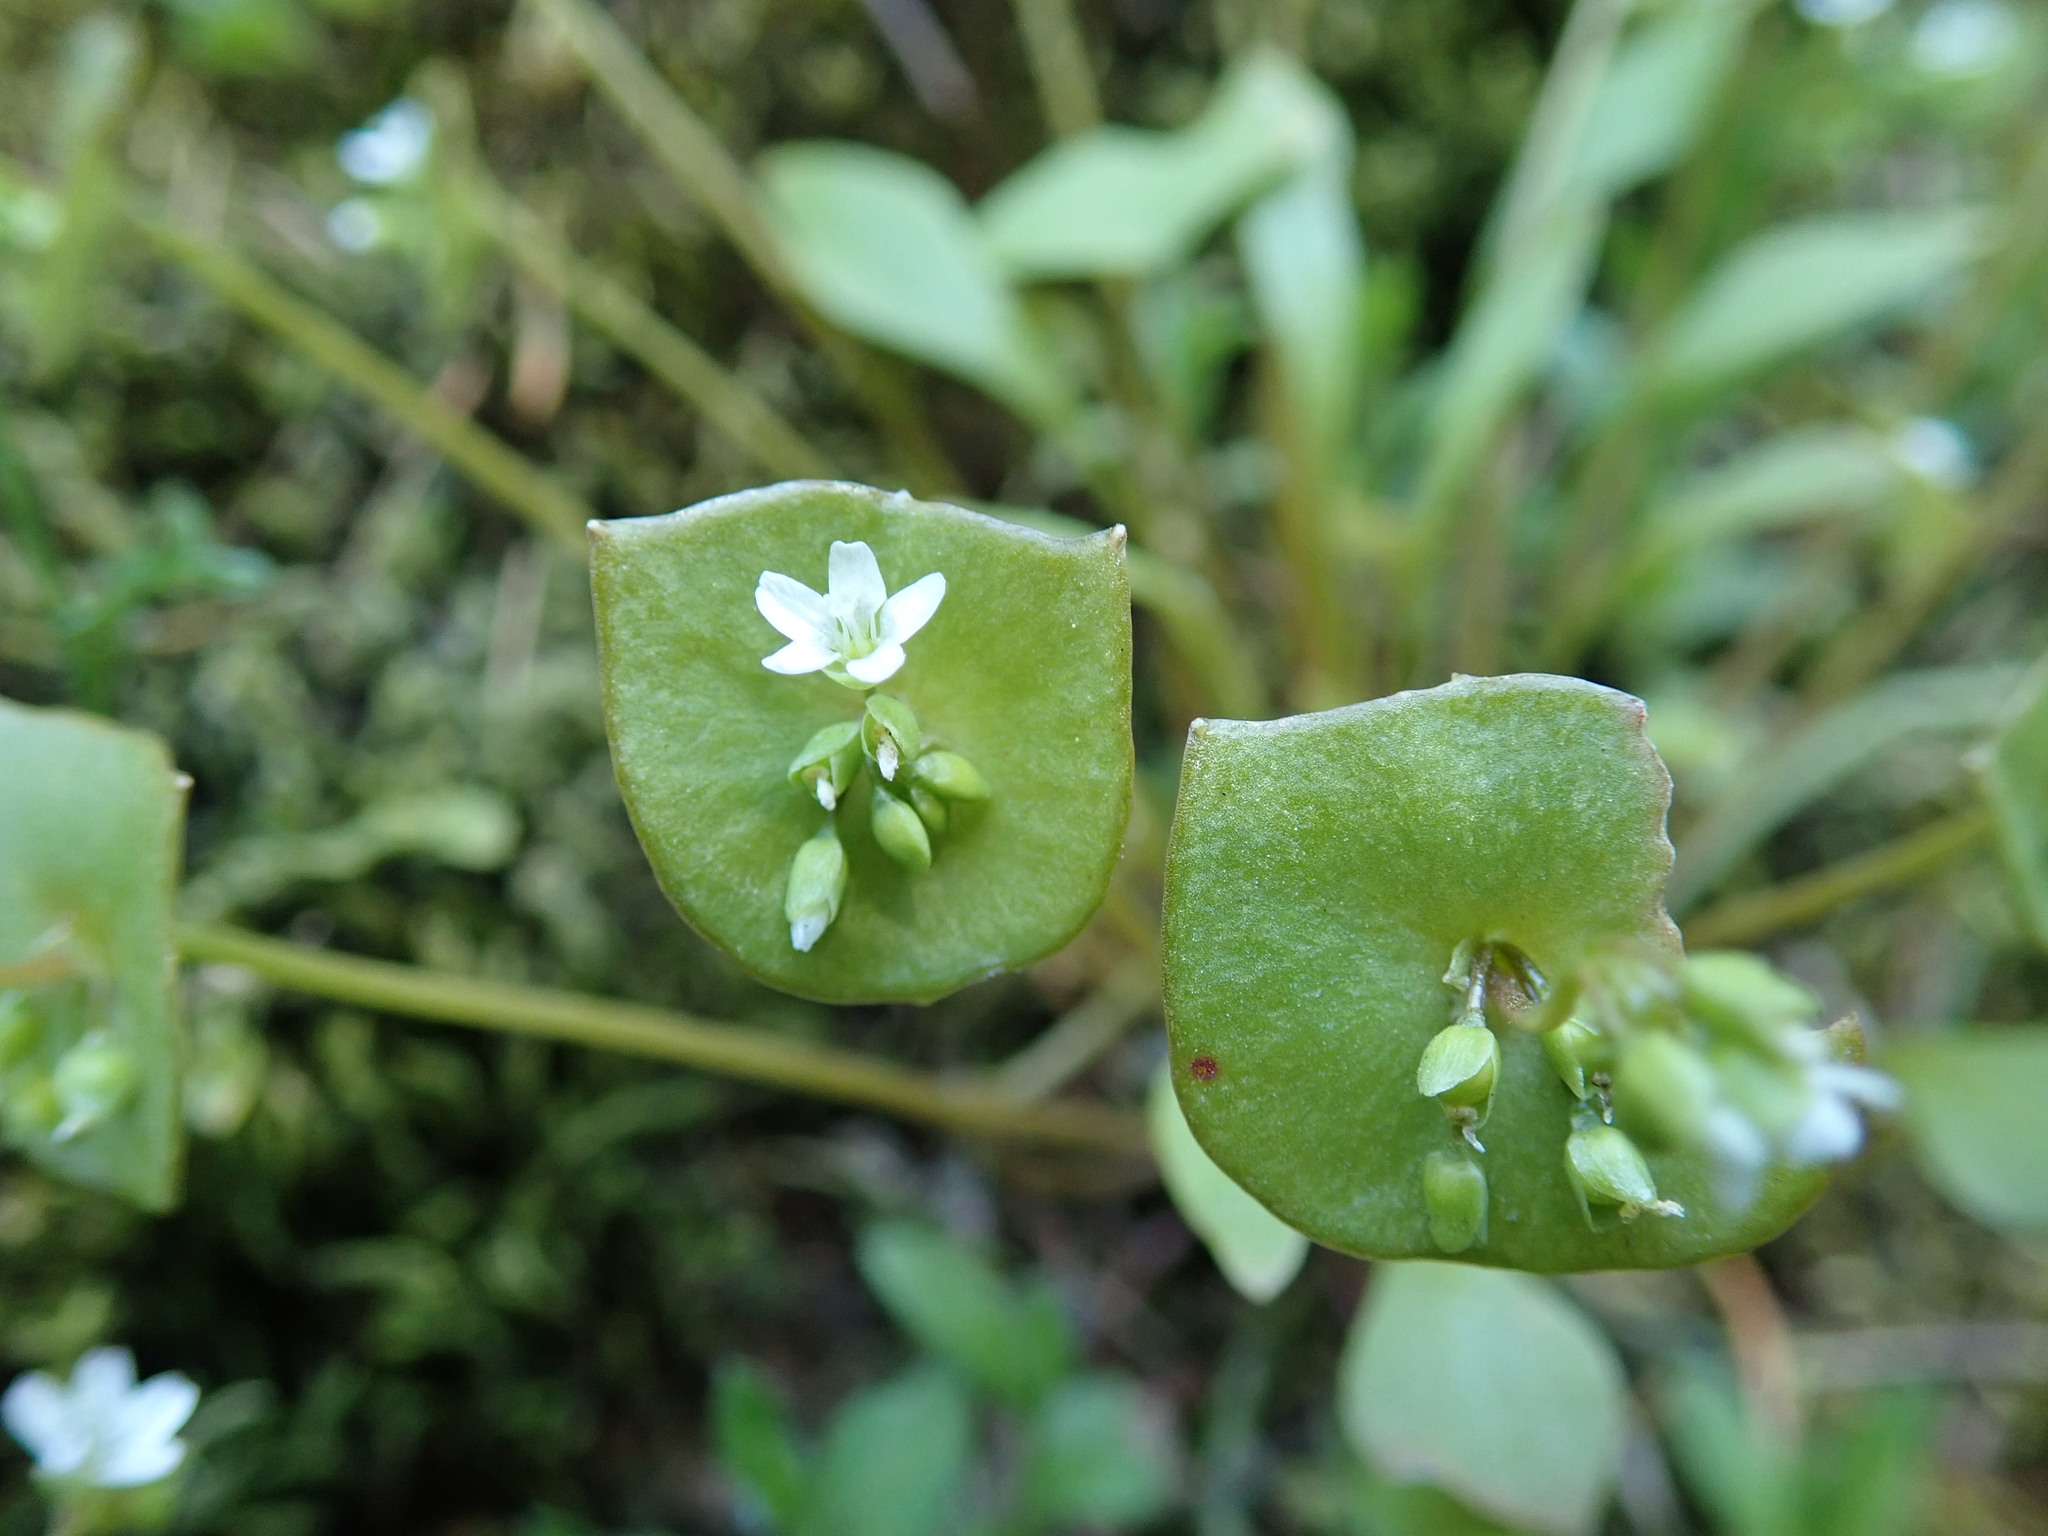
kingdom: Plantae
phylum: Tracheophyta
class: Magnoliopsida
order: Caryophyllales
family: Montiaceae
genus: Claytonia
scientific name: Claytonia perfoliata
